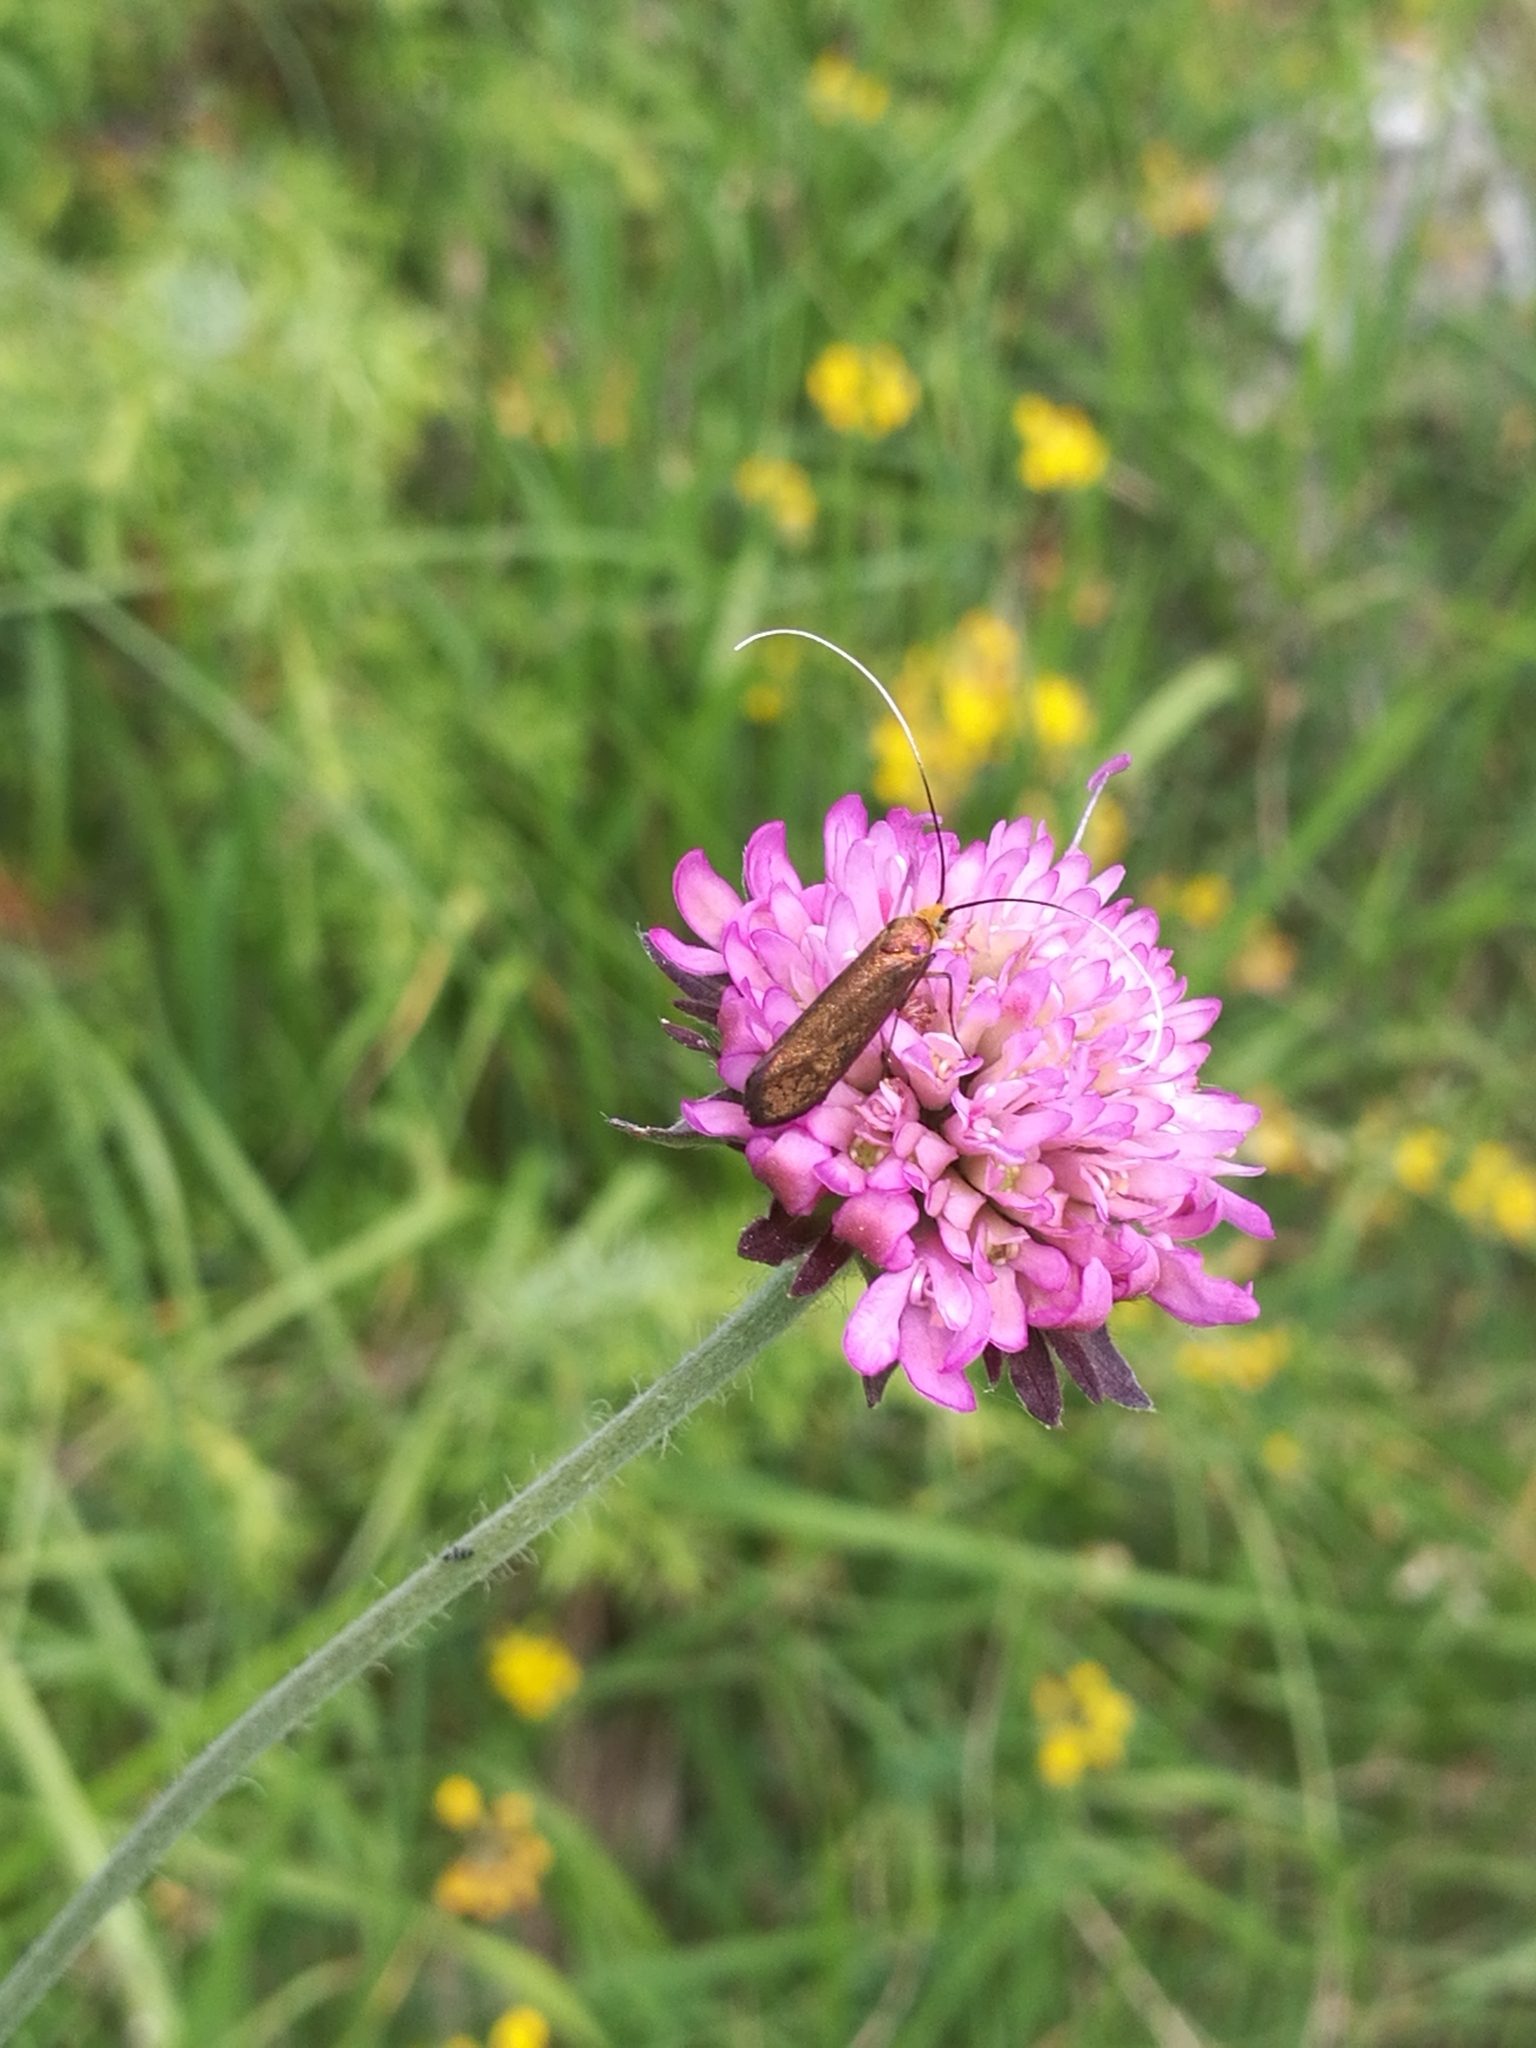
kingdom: Animalia
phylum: Arthropoda
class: Insecta
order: Lepidoptera
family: Adelidae
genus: Nemophora
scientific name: Nemophora metallica
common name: Brassy long-horn
